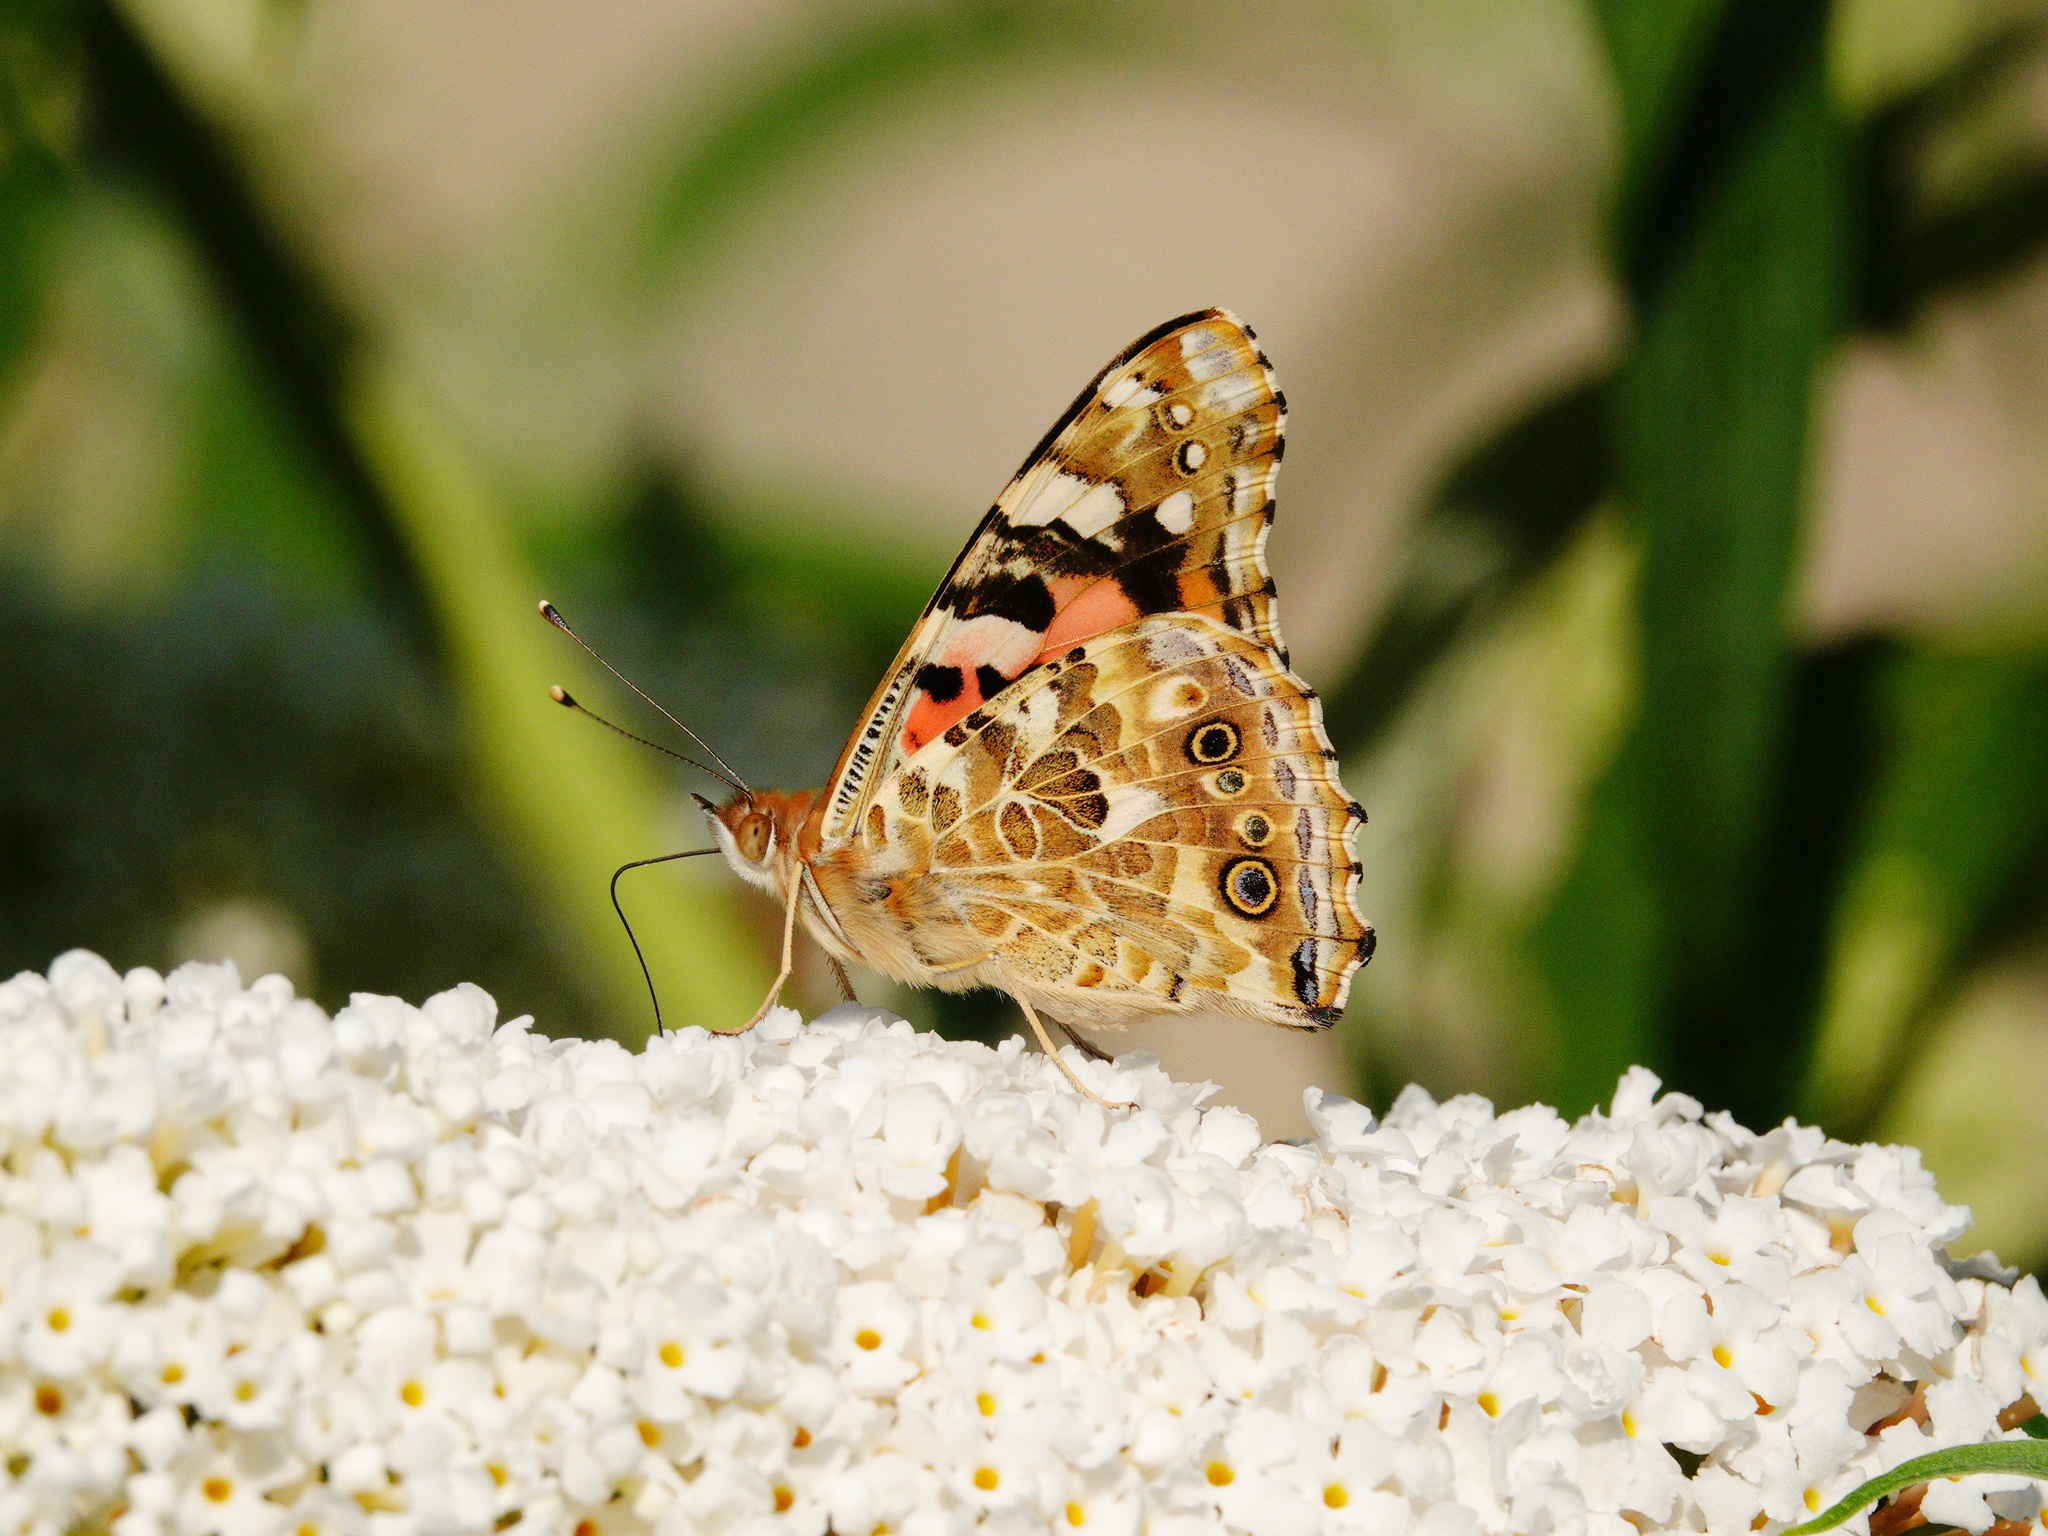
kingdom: Animalia
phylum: Arthropoda
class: Insecta
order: Lepidoptera
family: Nymphalidae
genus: Vanessa
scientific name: Vanessa cardui
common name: Painted lady
